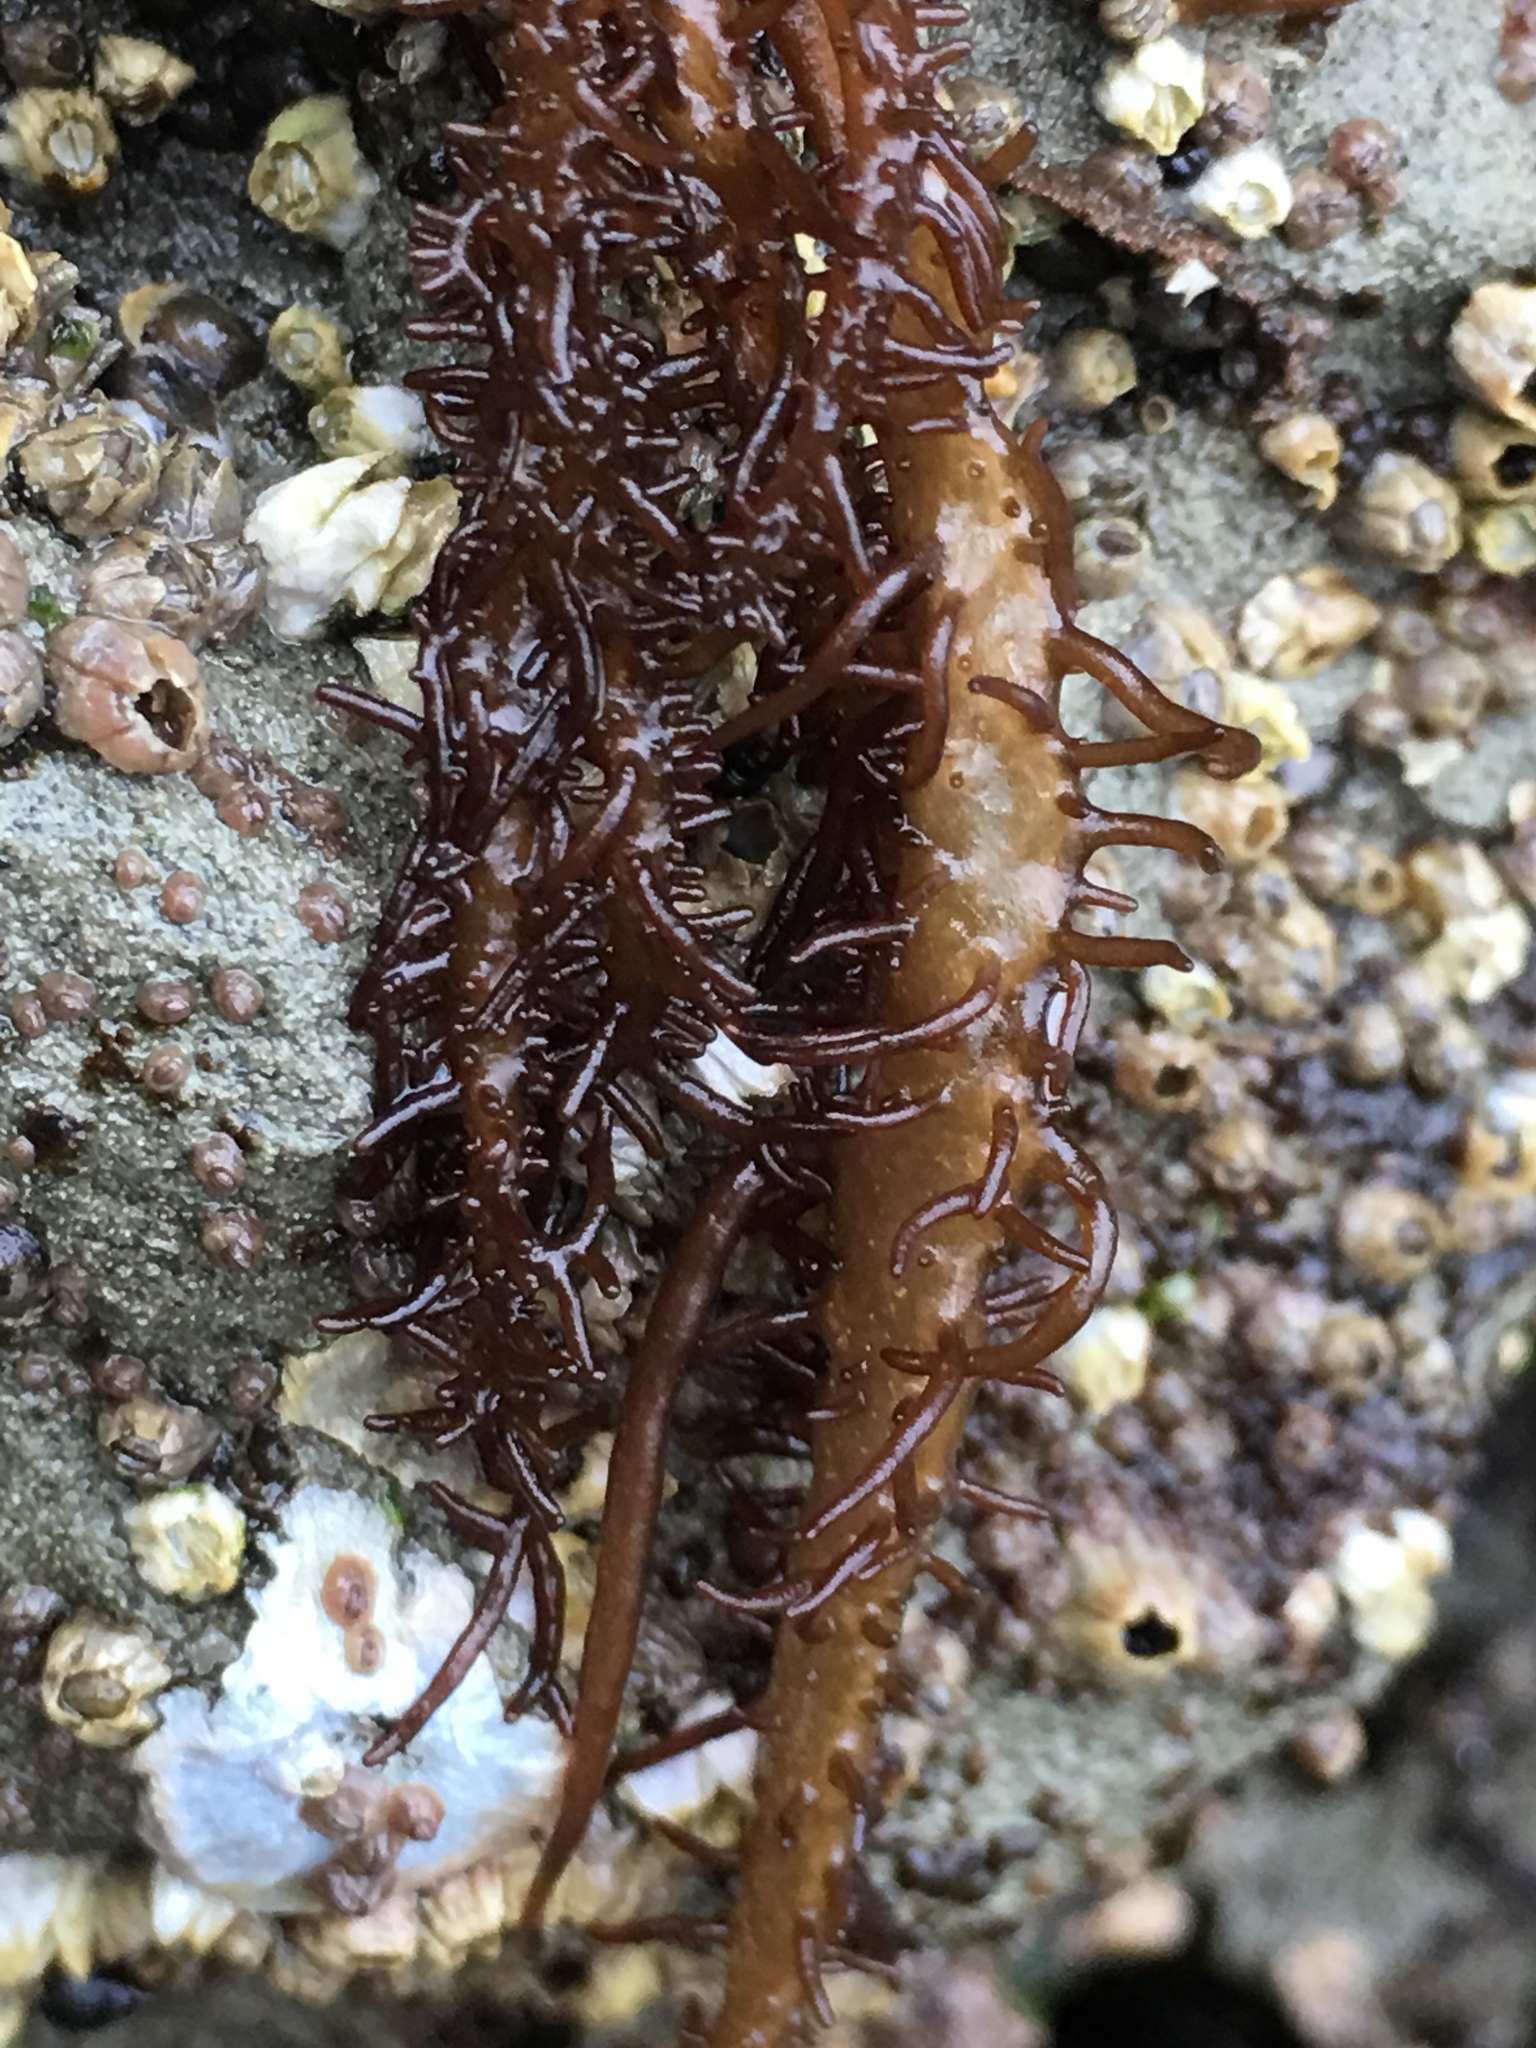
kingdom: Plantae
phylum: Rhodophyta
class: Florideophyceae
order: Nemaliales
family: Liagoraceae
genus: Cumagloia
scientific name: Cumagloia andersonii
